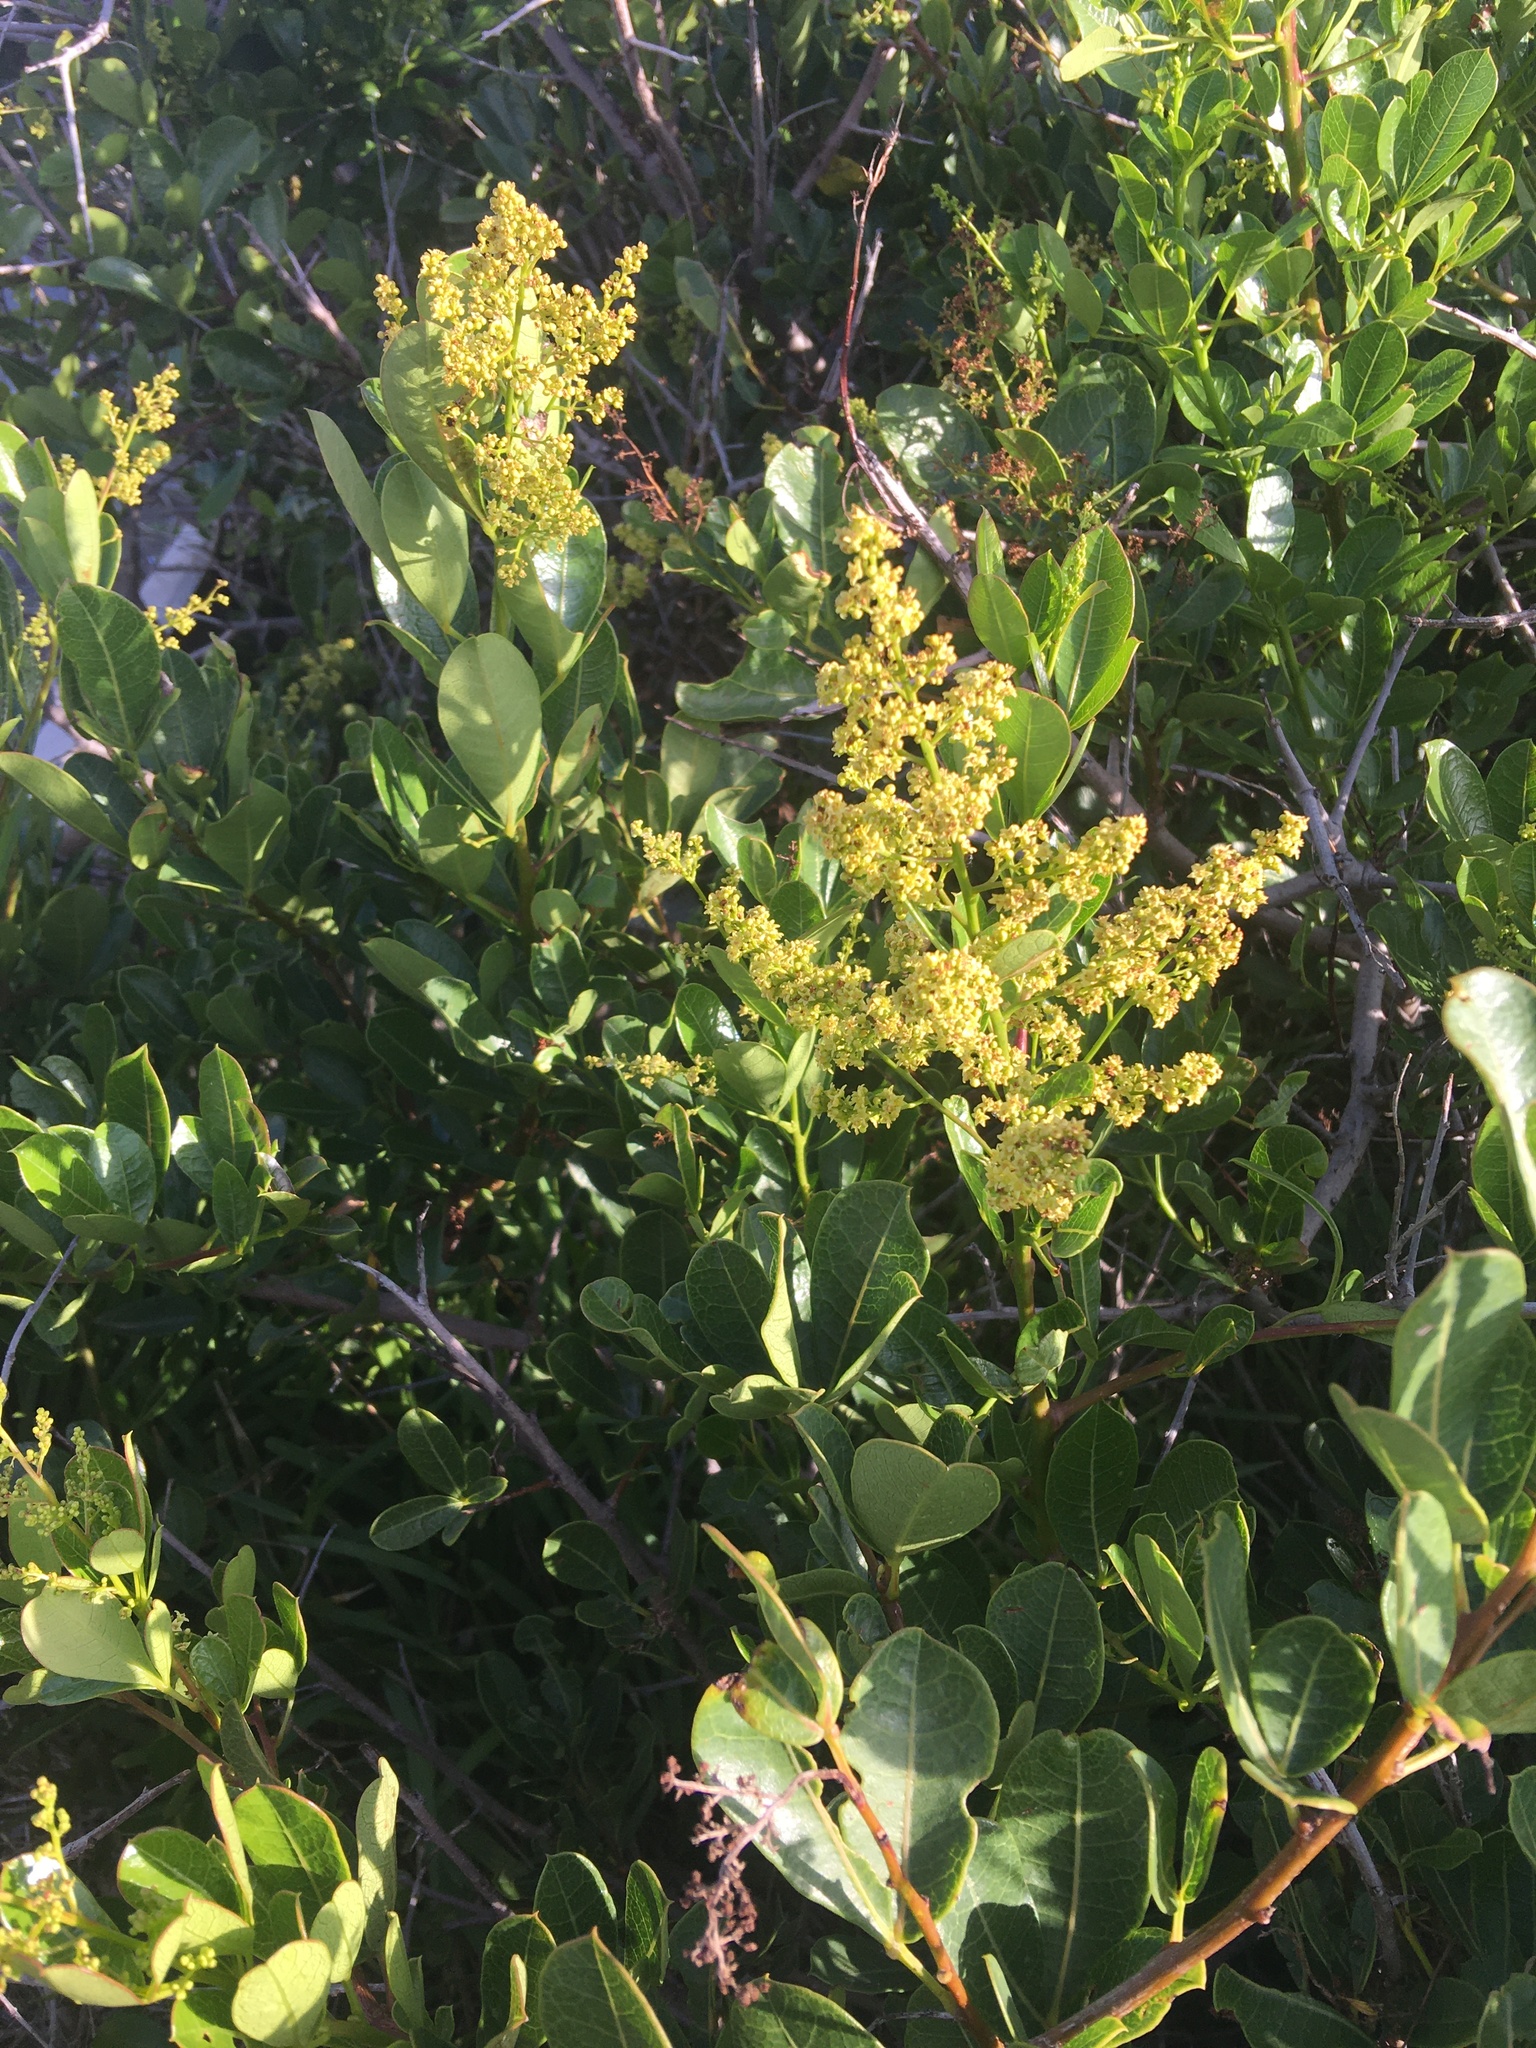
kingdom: Plantae
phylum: Tracheophyta
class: Magnoliopsida
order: Sapindales
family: Anacardiaceae
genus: Searsia
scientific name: Searsia laevigata
